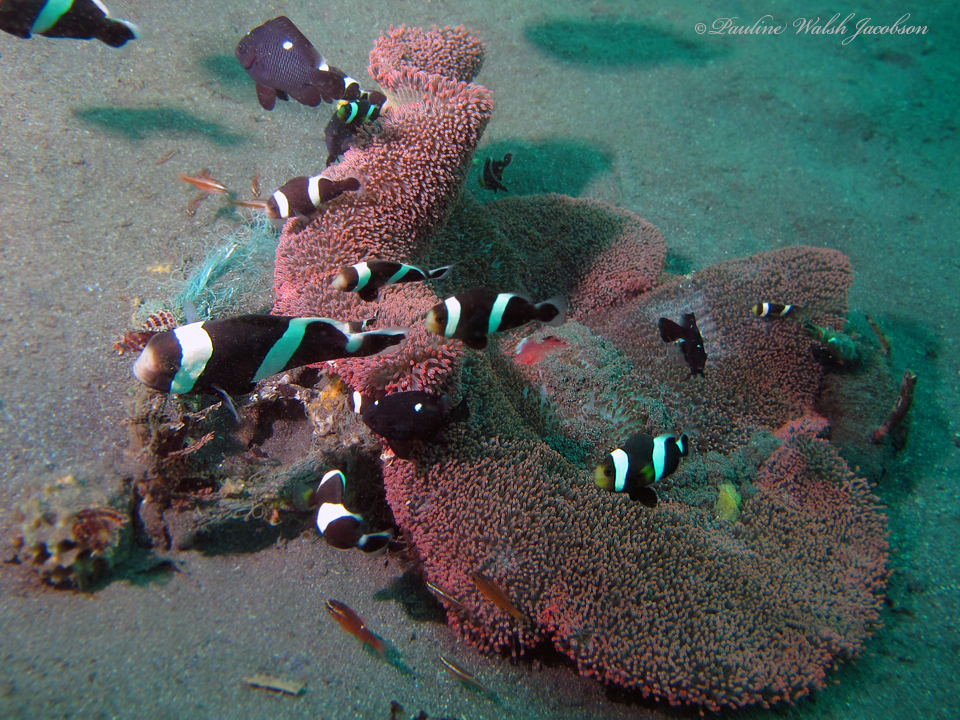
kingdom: Animalia
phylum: Chordata
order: Perciformes
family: Pomacentridae
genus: Amphiprion
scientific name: Amphiprion polymnus
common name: Saddleback anemonefish
